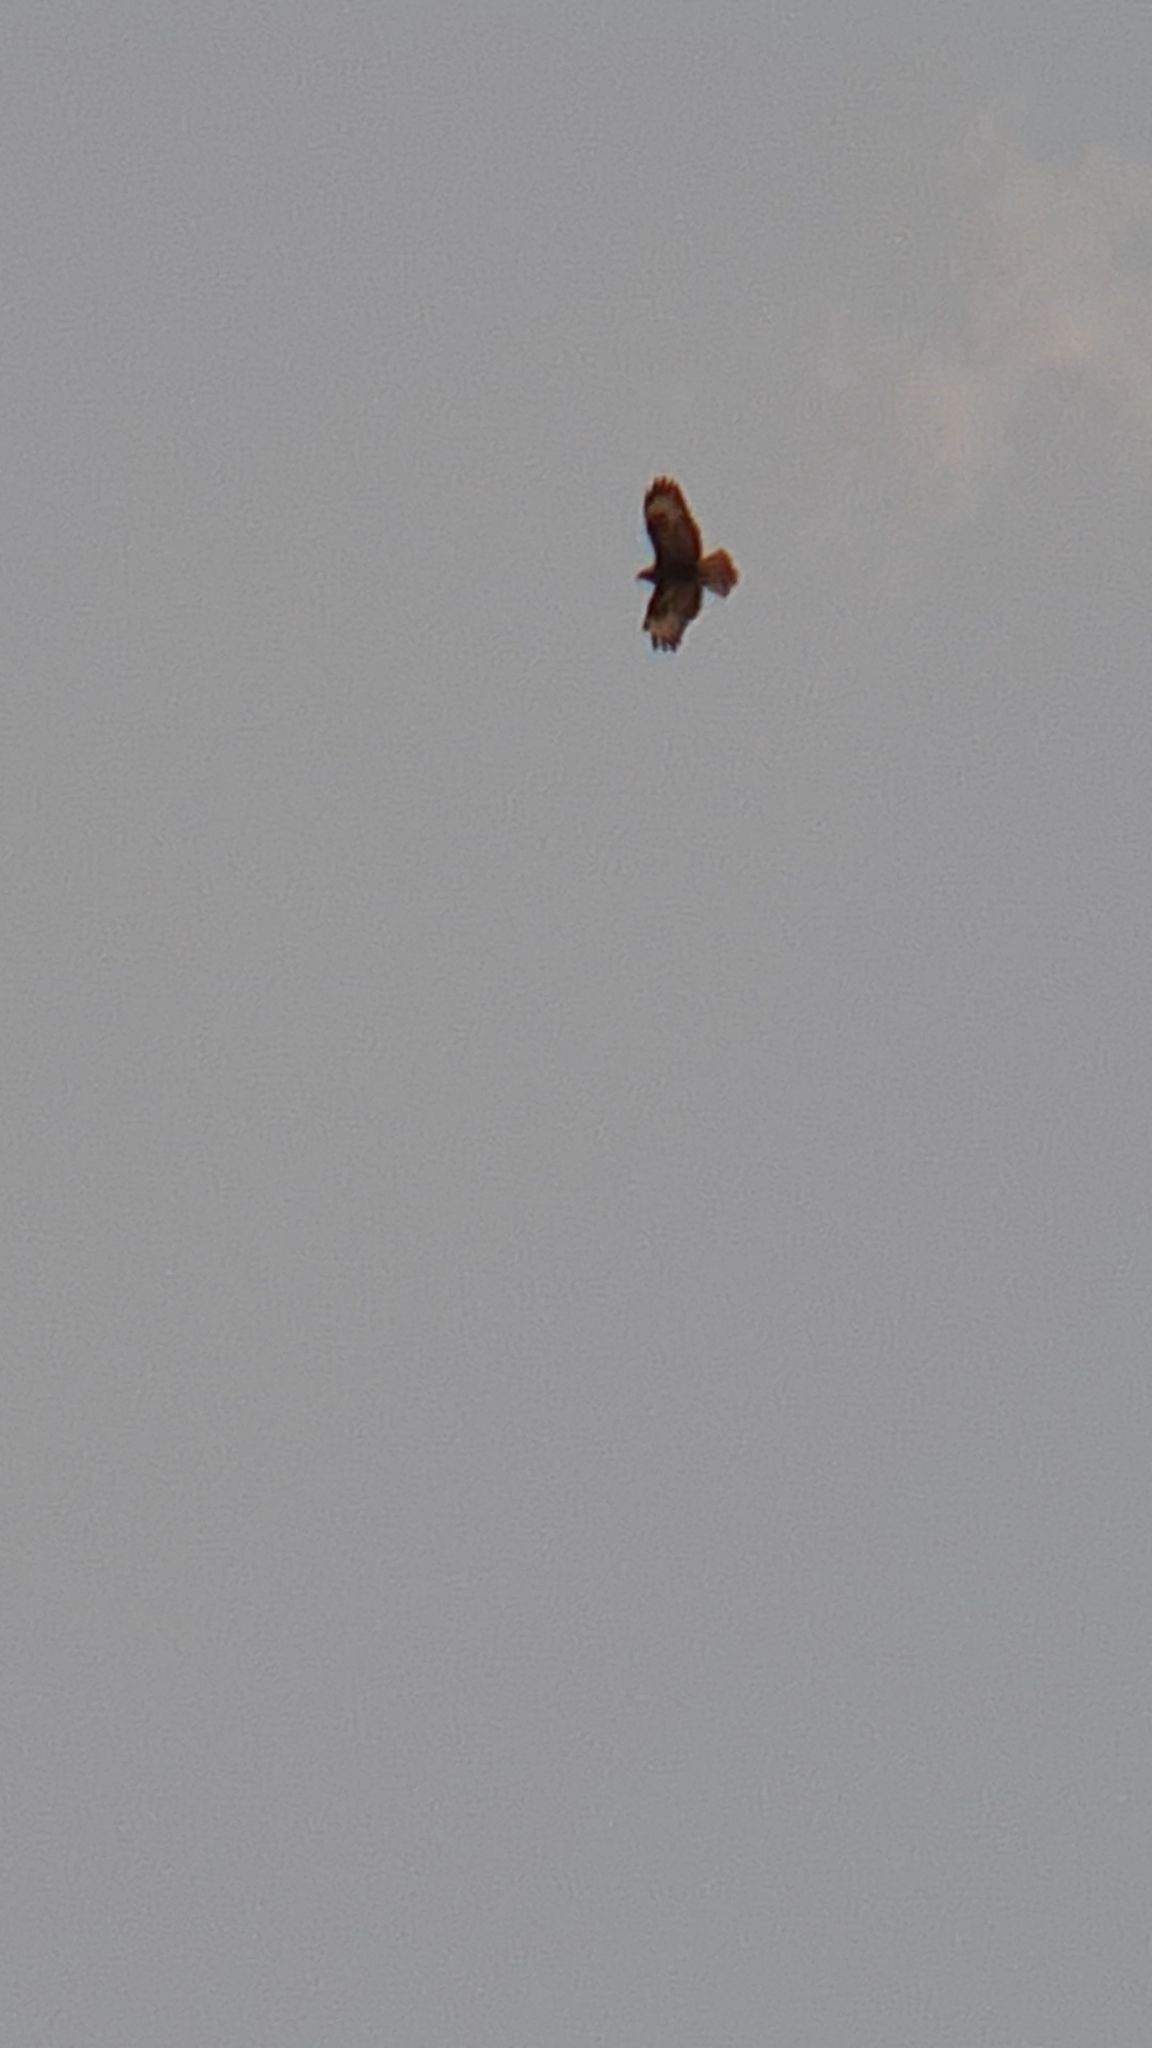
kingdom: Animalia
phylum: Chordata
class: Aves
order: Accipitriformes
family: Accipitridae
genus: Buteo
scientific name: Buteo buteo
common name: Common buzzard
